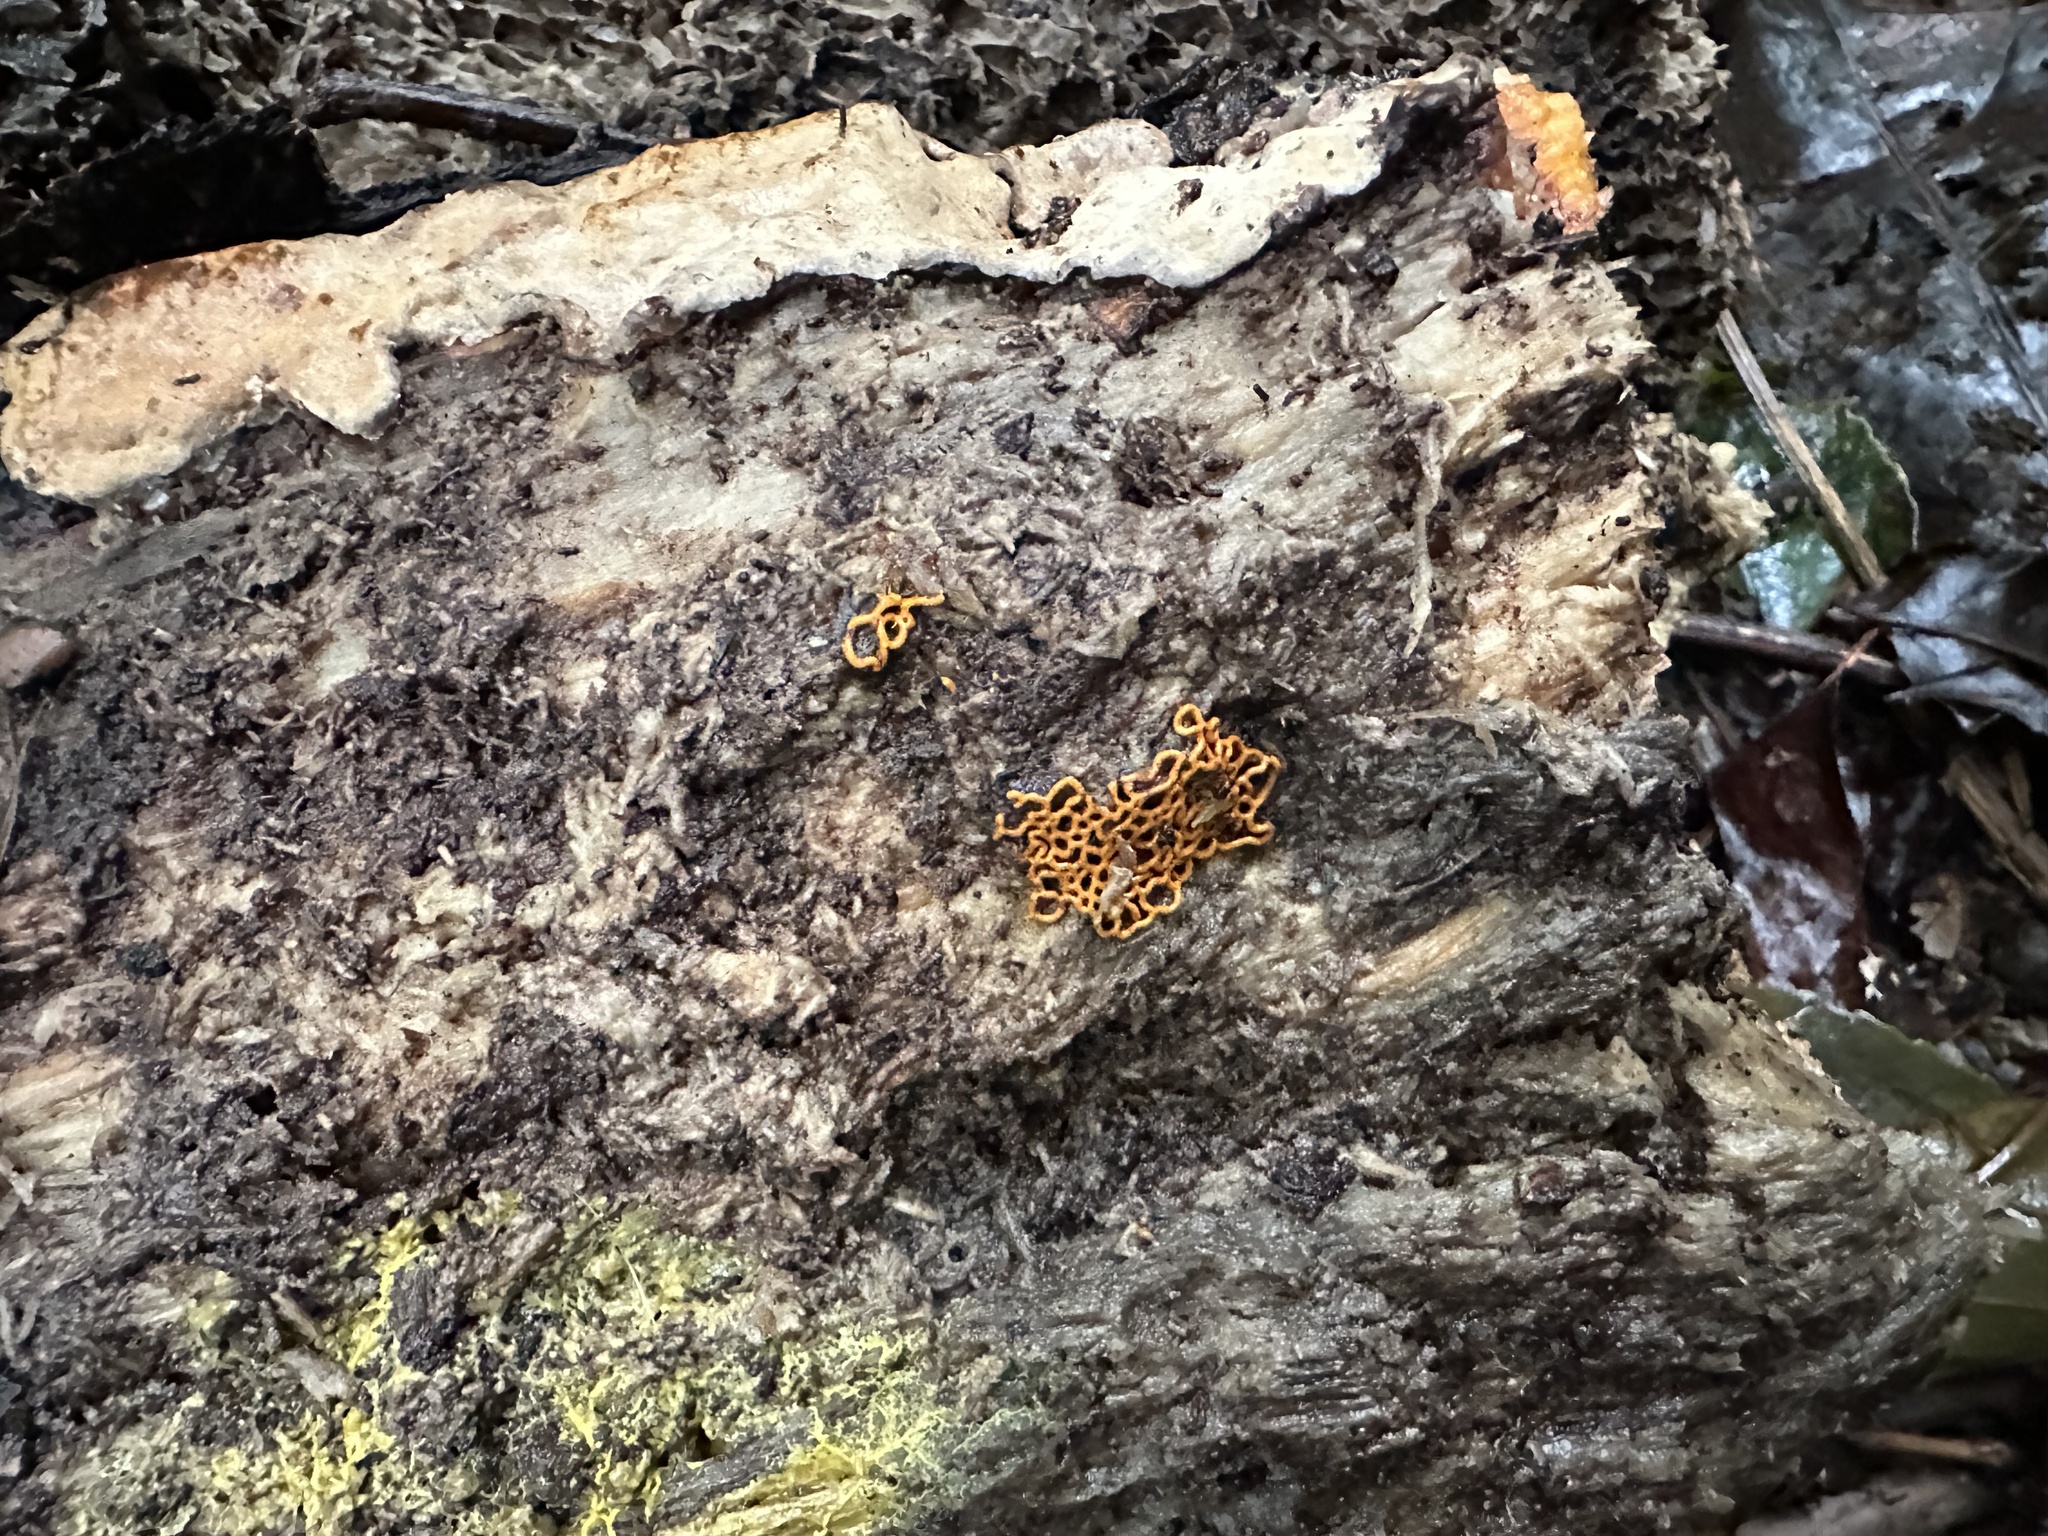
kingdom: Protozoa
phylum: Mycetozoa
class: Myxomycetes
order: Trichiales
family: Arcyriaceae
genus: Hemitrichia
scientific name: Hemitrichia serpula
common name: Pretzel slime mold
